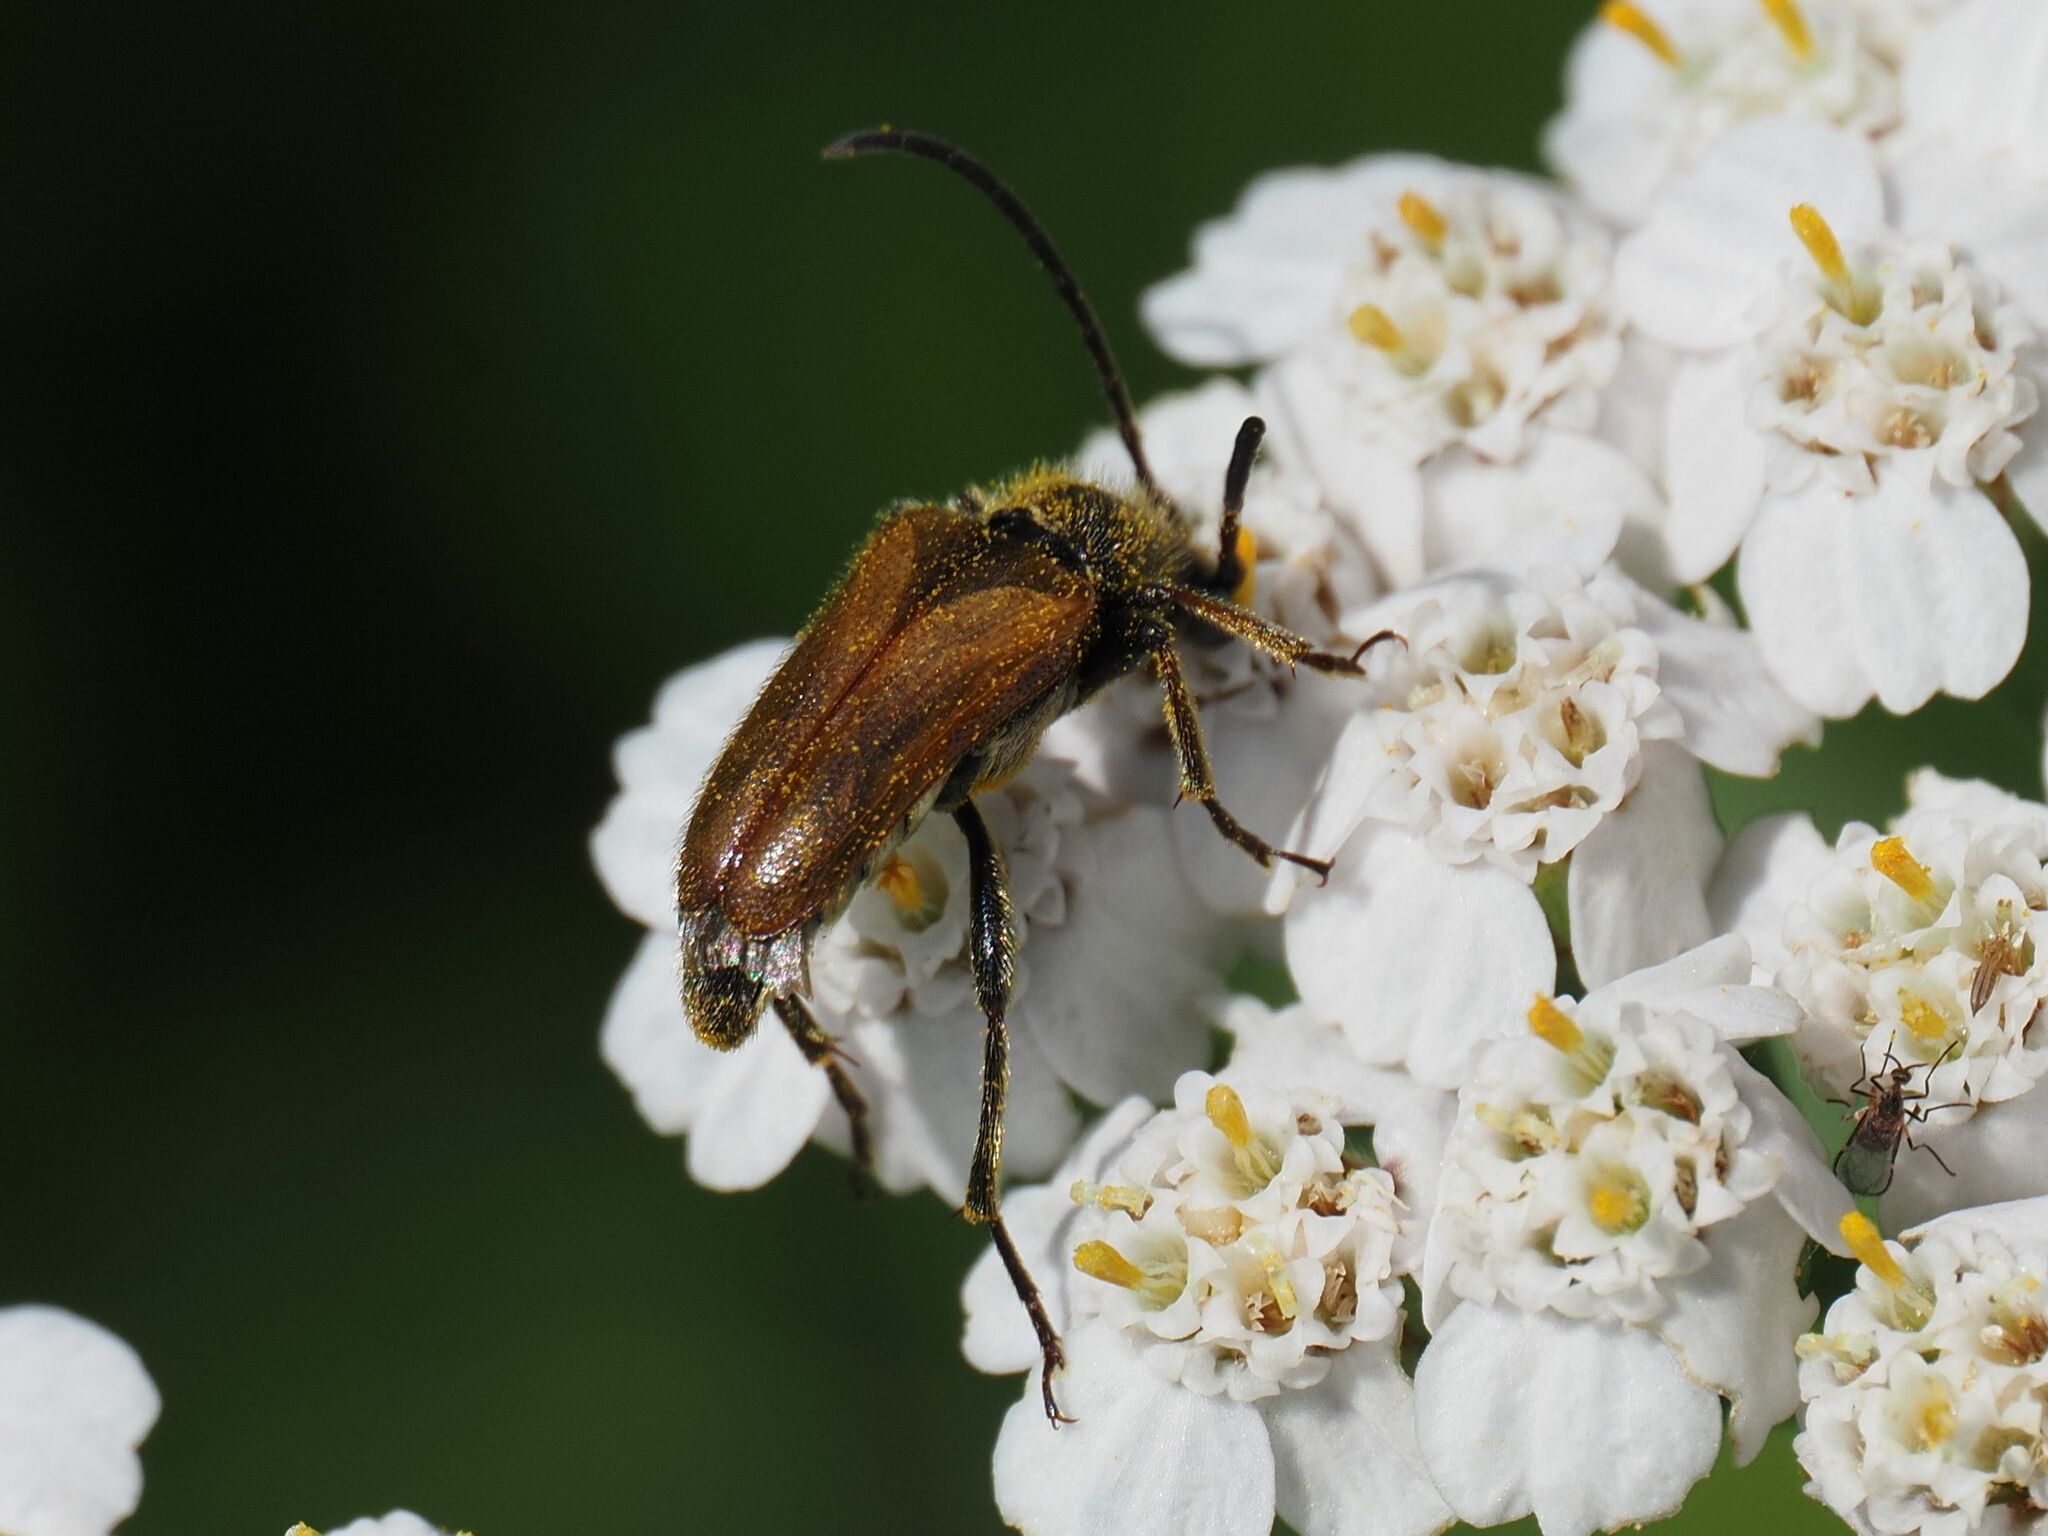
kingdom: Animalia
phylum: Arthropoda
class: Insecta
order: Coleoptera
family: Cerambycidae
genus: Pseudovadonia
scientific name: Pseudovadonia livida
